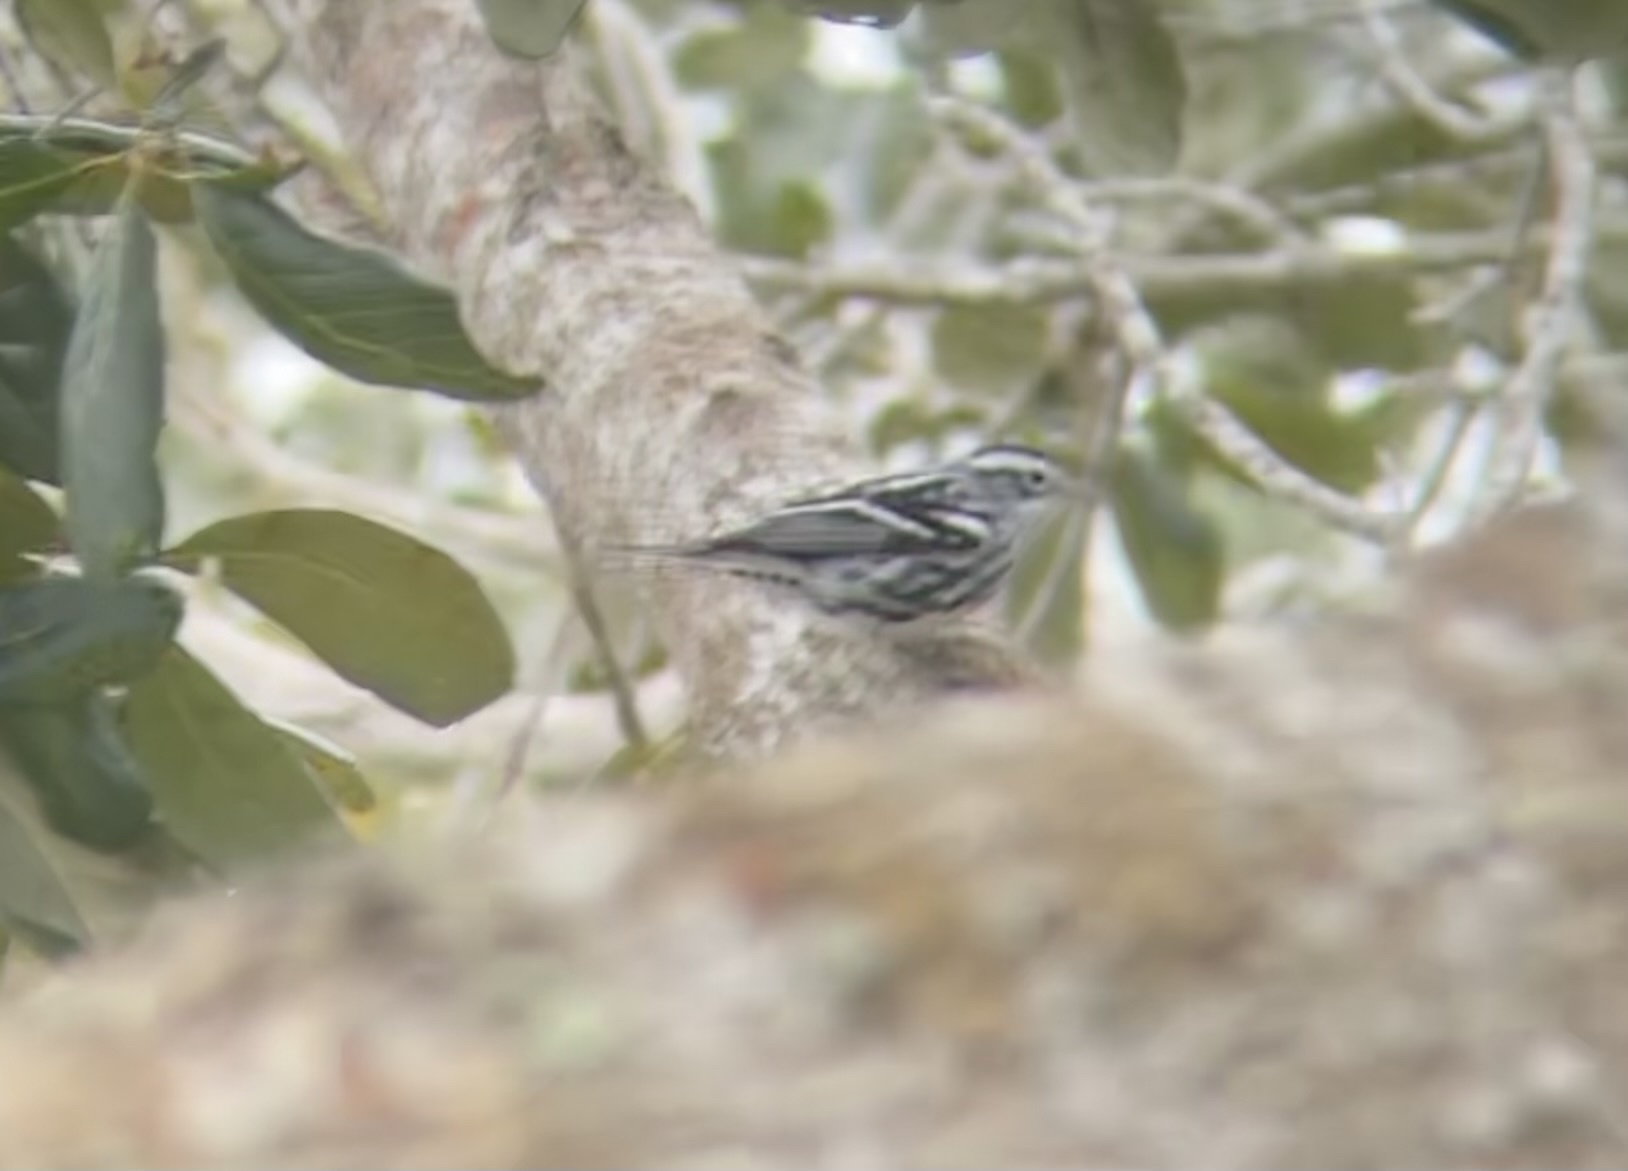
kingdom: Animalia
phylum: Chordata
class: Aves
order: Passeriformes
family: Parulidae
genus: Mniotilta
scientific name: Mniotilta varia
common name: Black-and-white warbler
